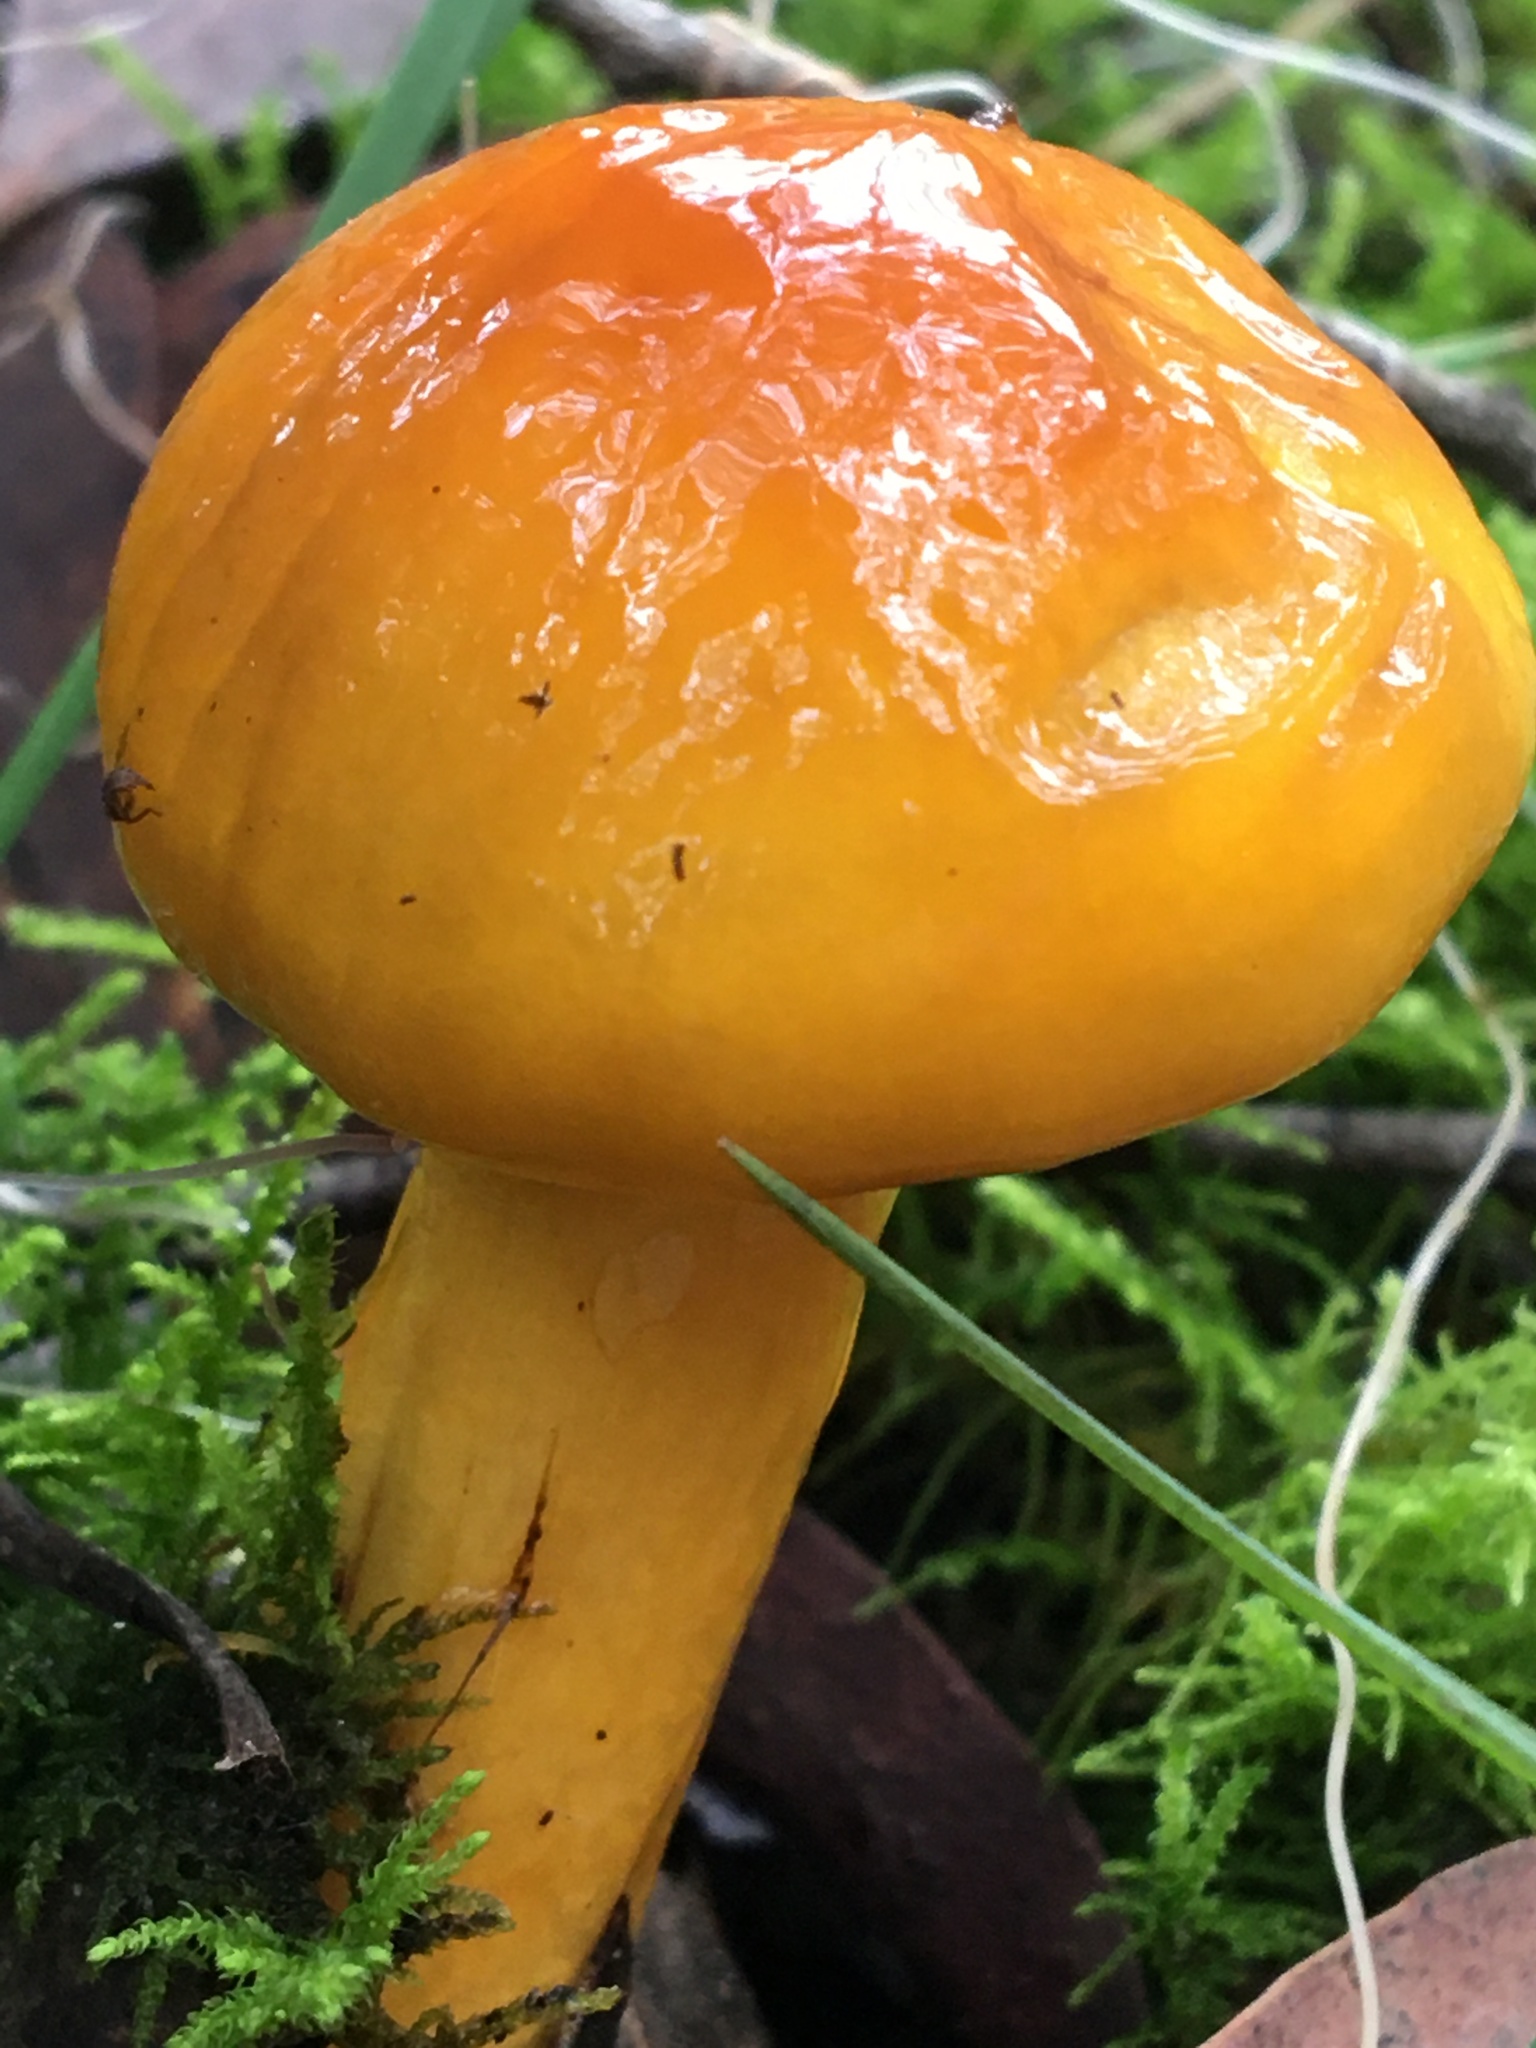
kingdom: Fungi
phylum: Basidiomycota
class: Agaricomycetes
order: Agaricales
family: Cortinariaceae
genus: Cortinarius
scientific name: Cortinarius sinapicolor
